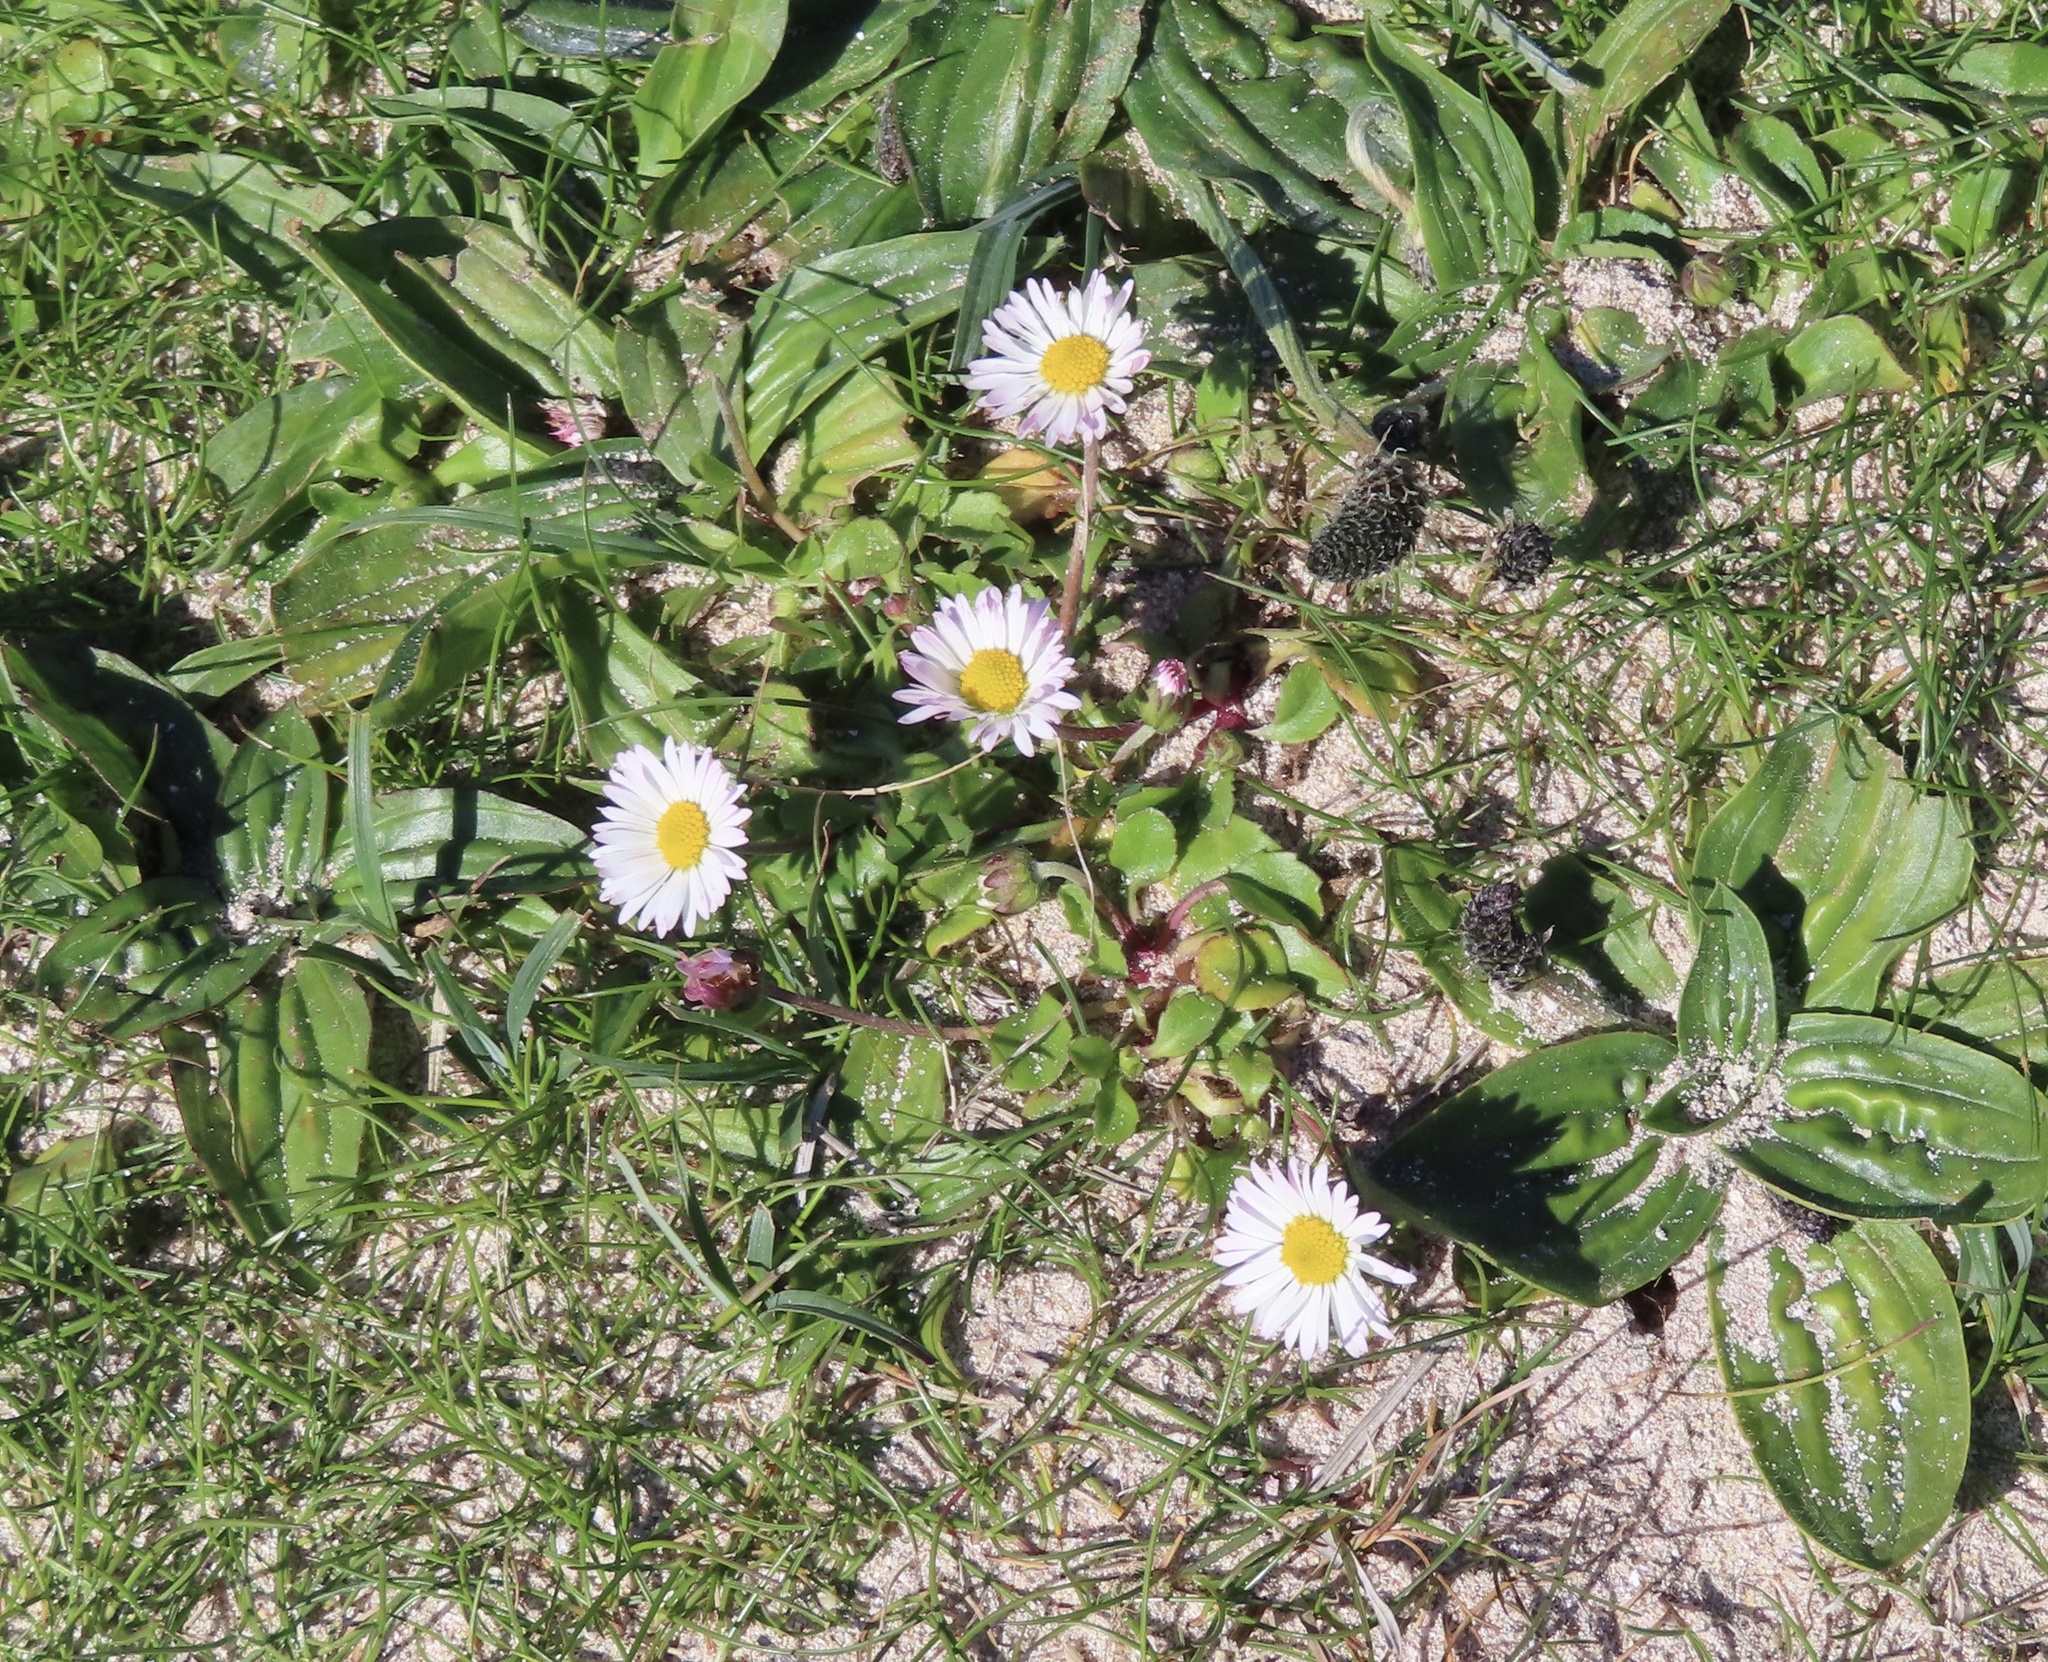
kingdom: Plantae
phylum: Tracheophyta
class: Magnoliopsida
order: Asterales
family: Asteraceae
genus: Bellis
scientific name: Bellis perennis
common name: Lawndaisy
